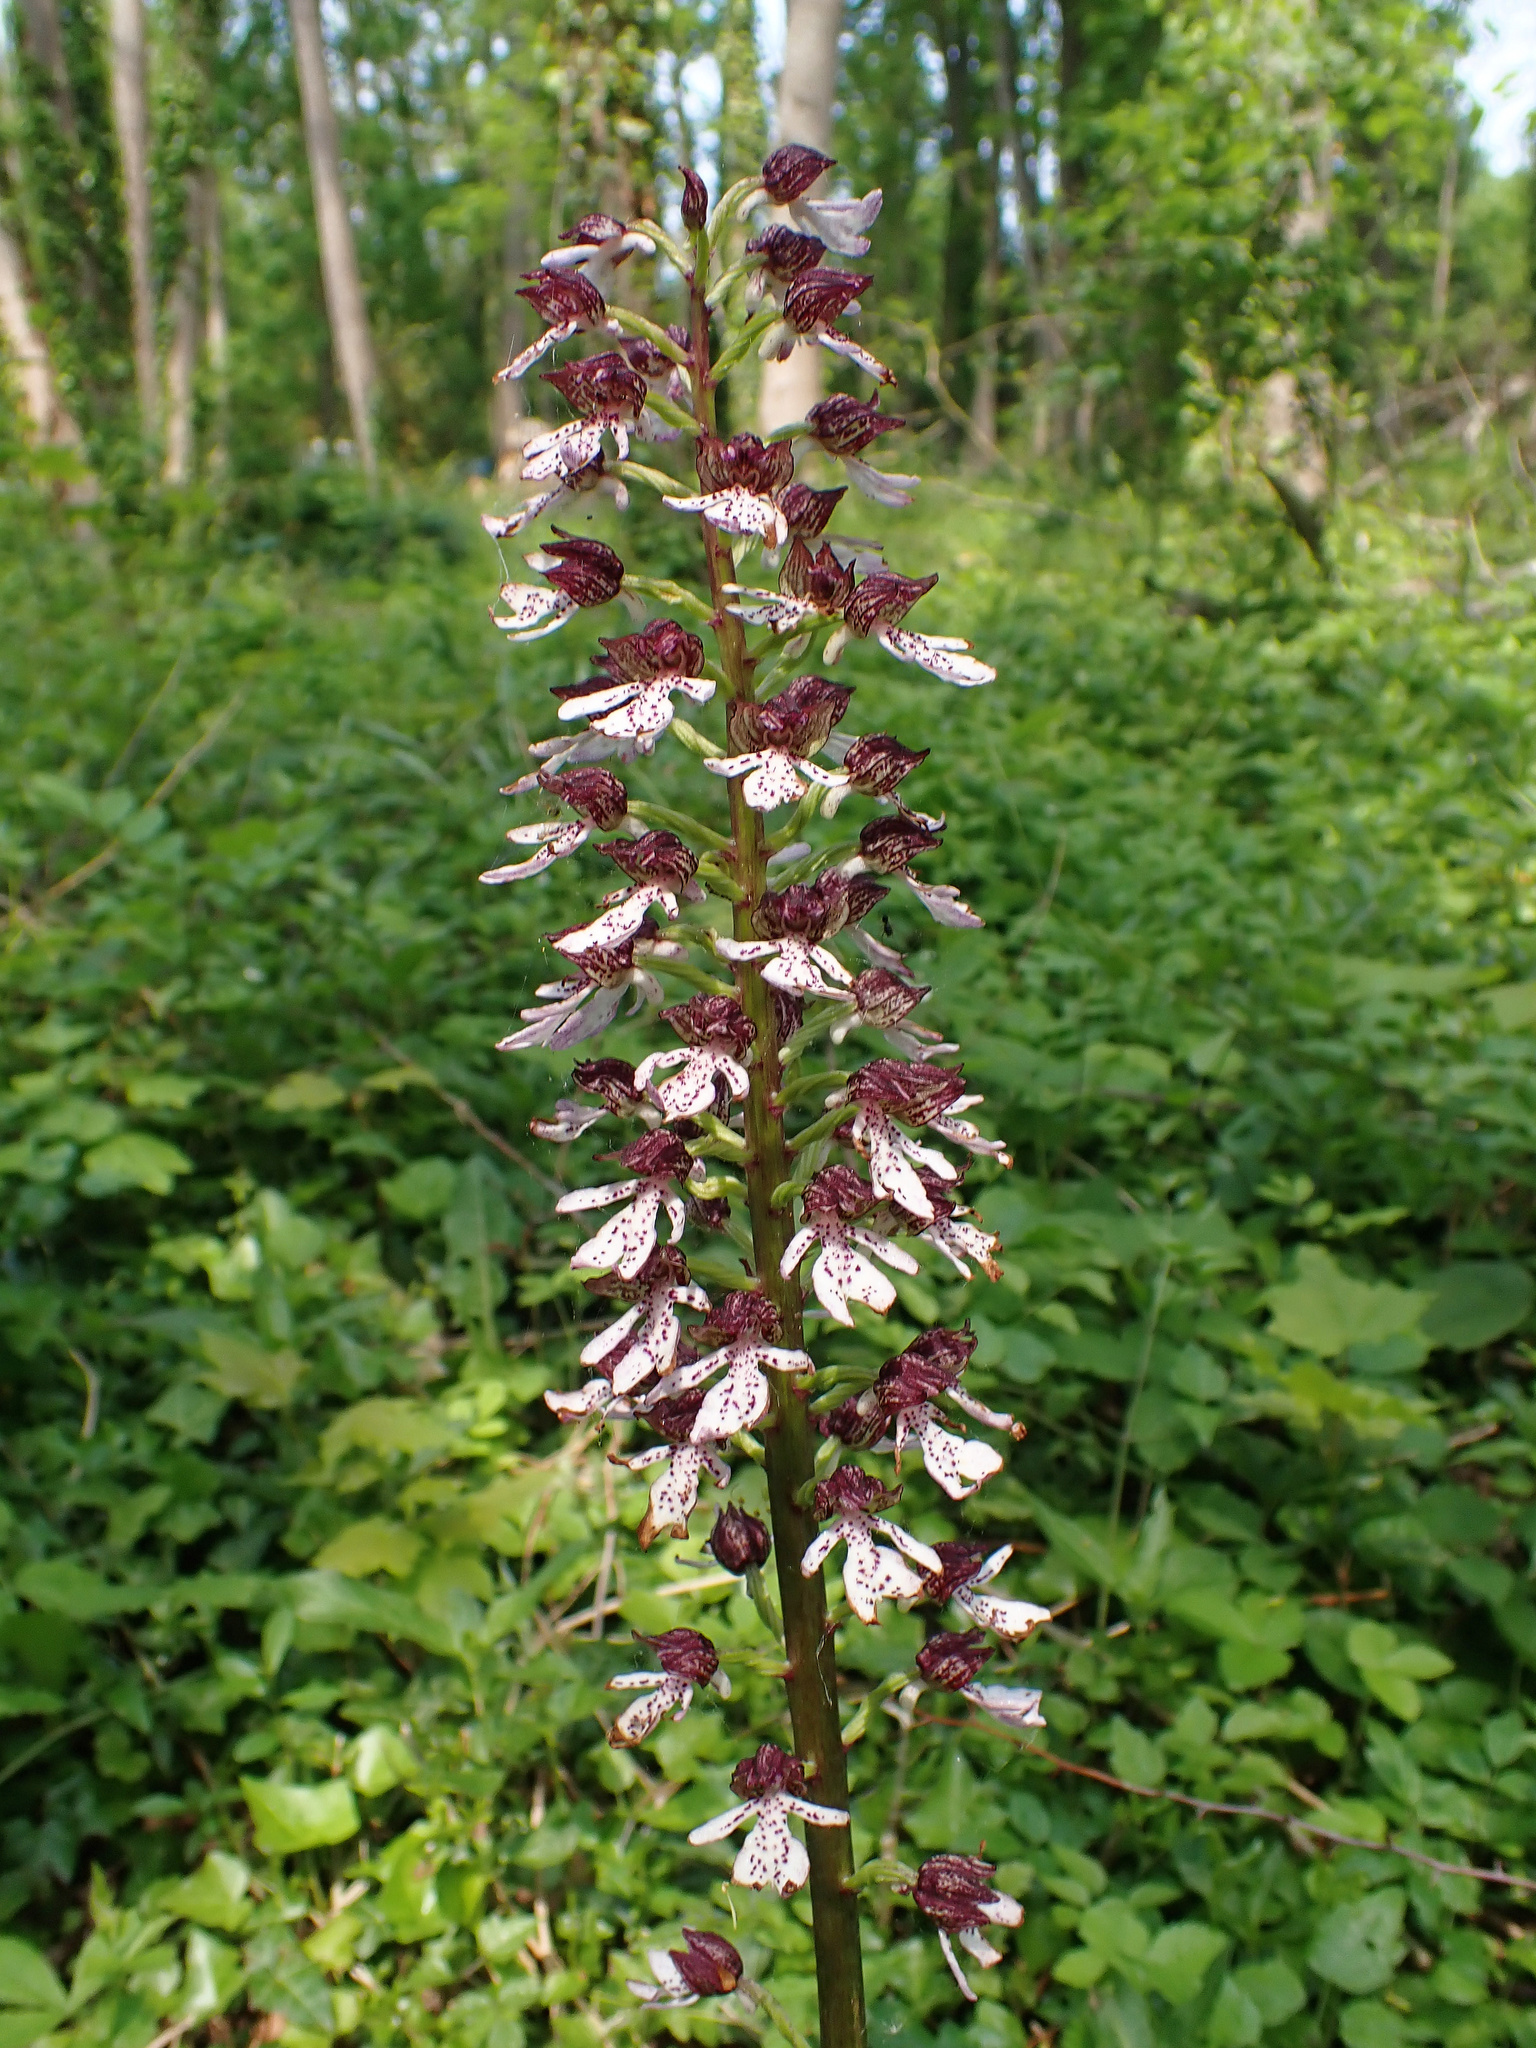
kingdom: Plantae
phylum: Tracheophyta
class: Liliopsida
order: Asparagales
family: Orchidaceae
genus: Orchis
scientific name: Orchis purpurea
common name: Lady orchid
